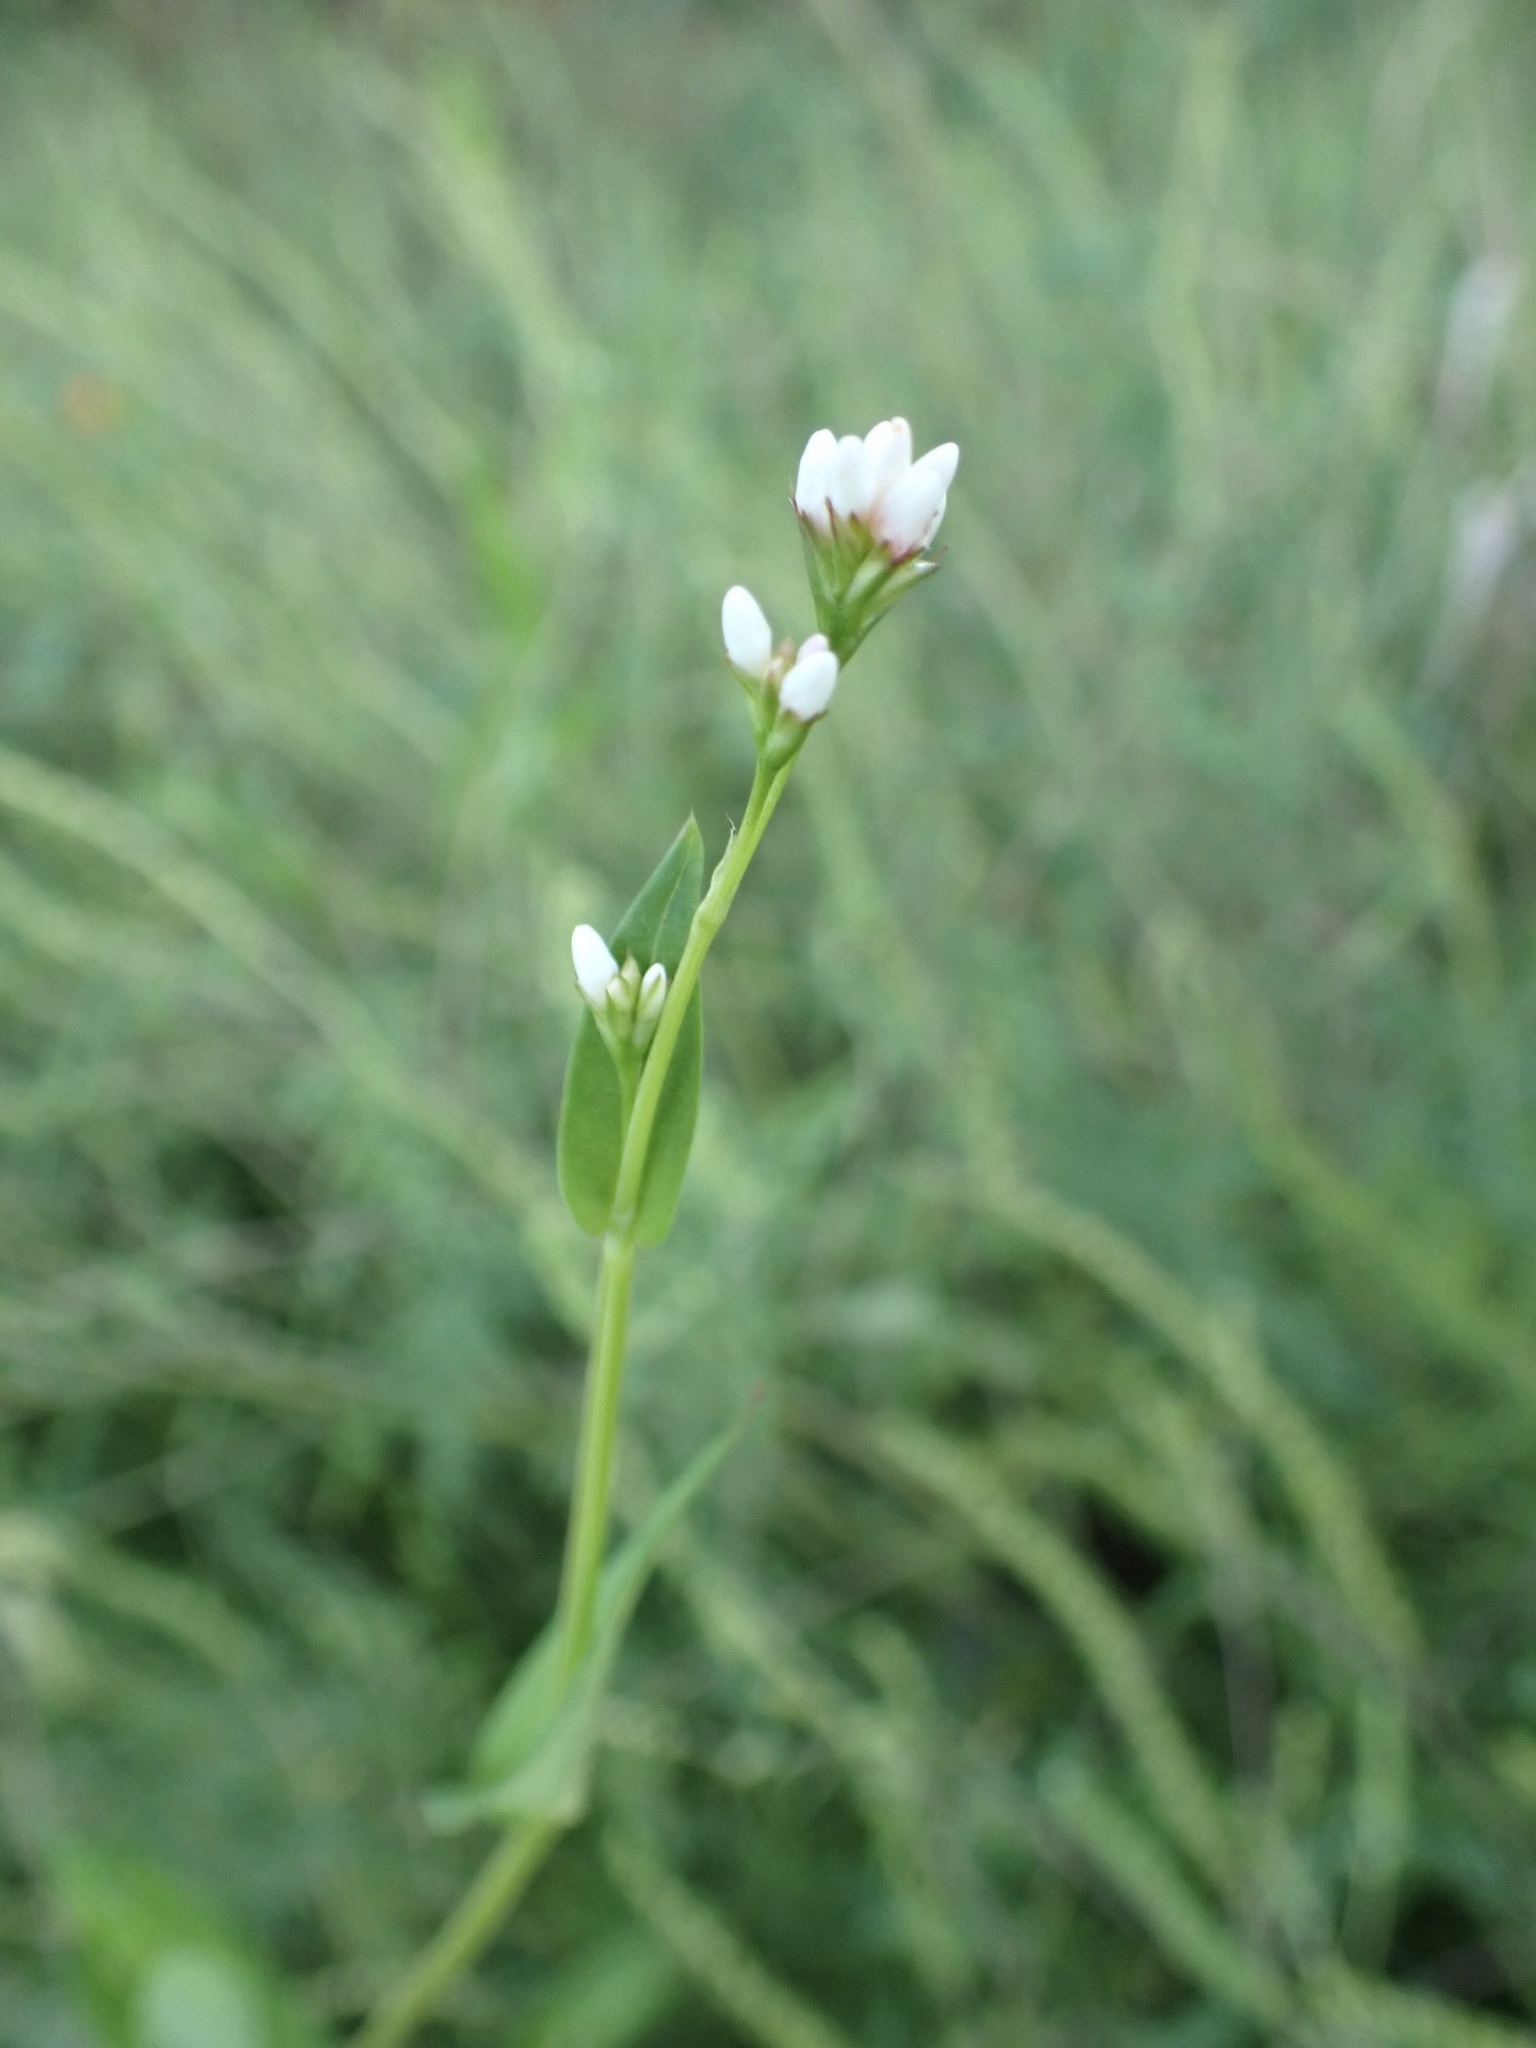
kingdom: Plantae
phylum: Tracheophyta
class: Magnoliopsida
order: Caryophyllales
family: Polygonaceae
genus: Persicaria
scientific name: Persicaria sagittata
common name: American tearthumb
